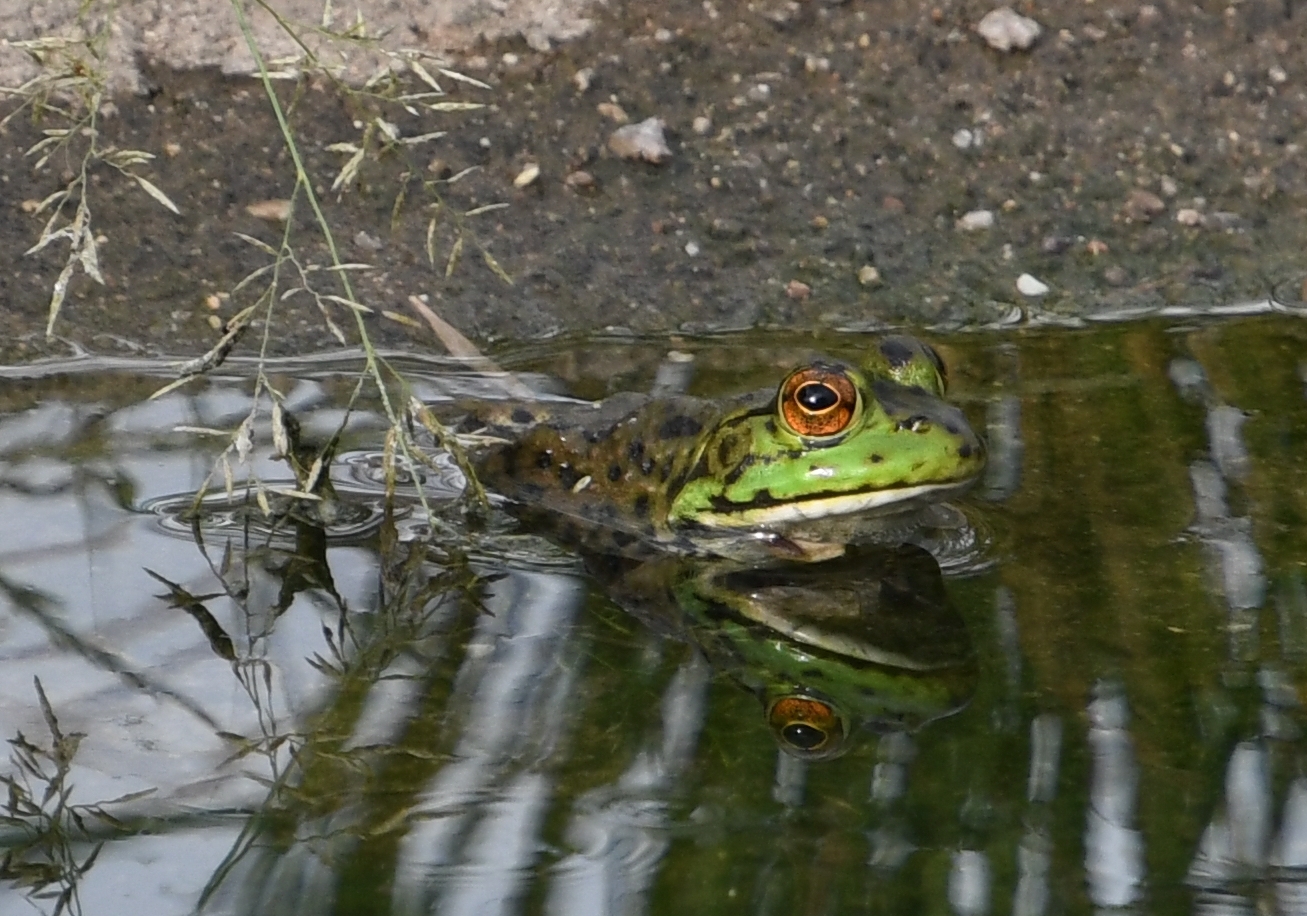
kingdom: Animalia
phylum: Chordata
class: Amphibia
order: Anura
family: Ranidae
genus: Lithobates
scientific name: Lithobates catesbeianus
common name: American bullfrog
